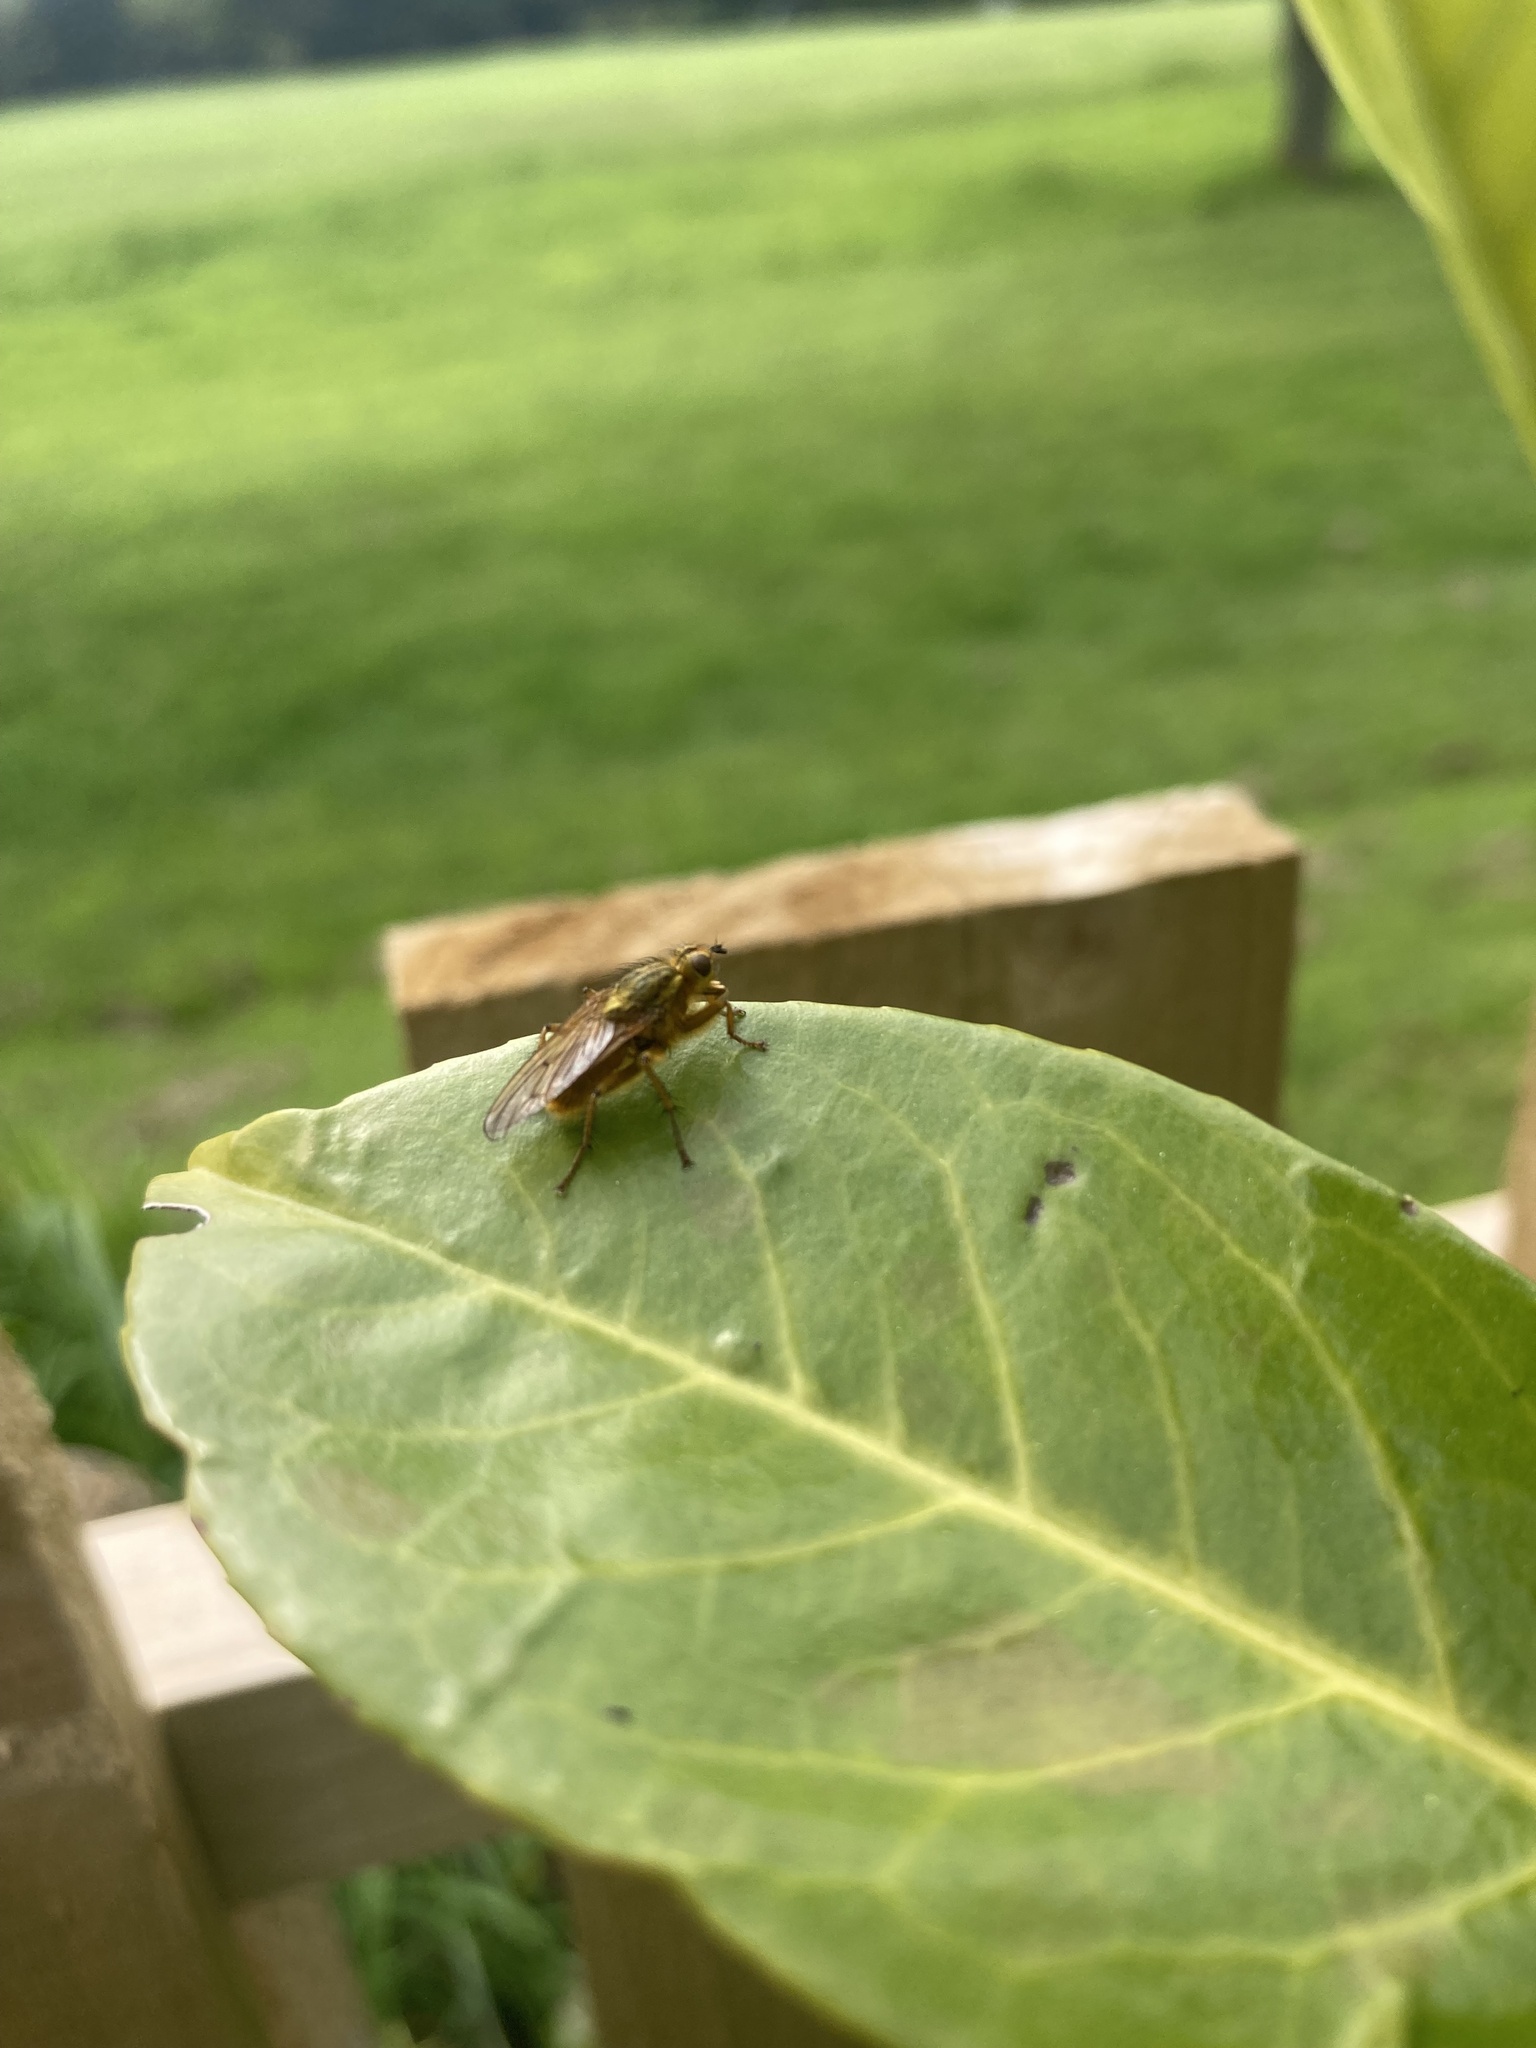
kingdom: Animalia
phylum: Arthropoda
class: Insecta
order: Diptera
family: Scathophagidae
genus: Scathophaga
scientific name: Scathophaga stercoraria
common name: Yellow dung fly
